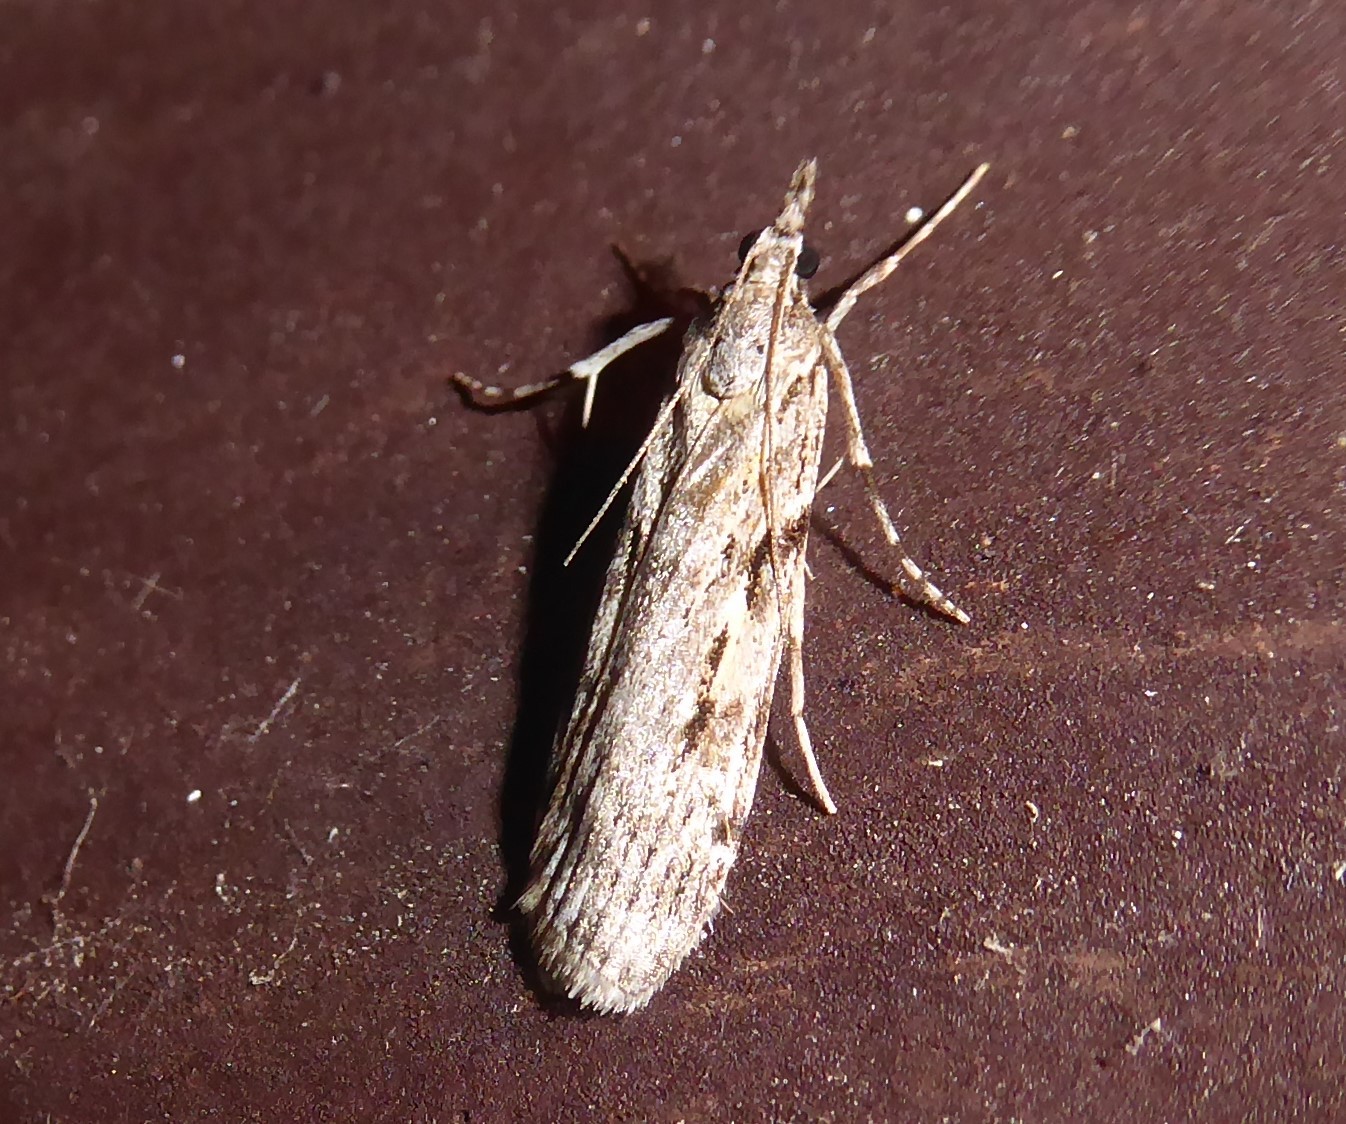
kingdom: Animalia
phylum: Arthropoda
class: Insecta
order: Lepidoptera
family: Crambidae
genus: Scoparia
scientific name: Scoparia halopis
